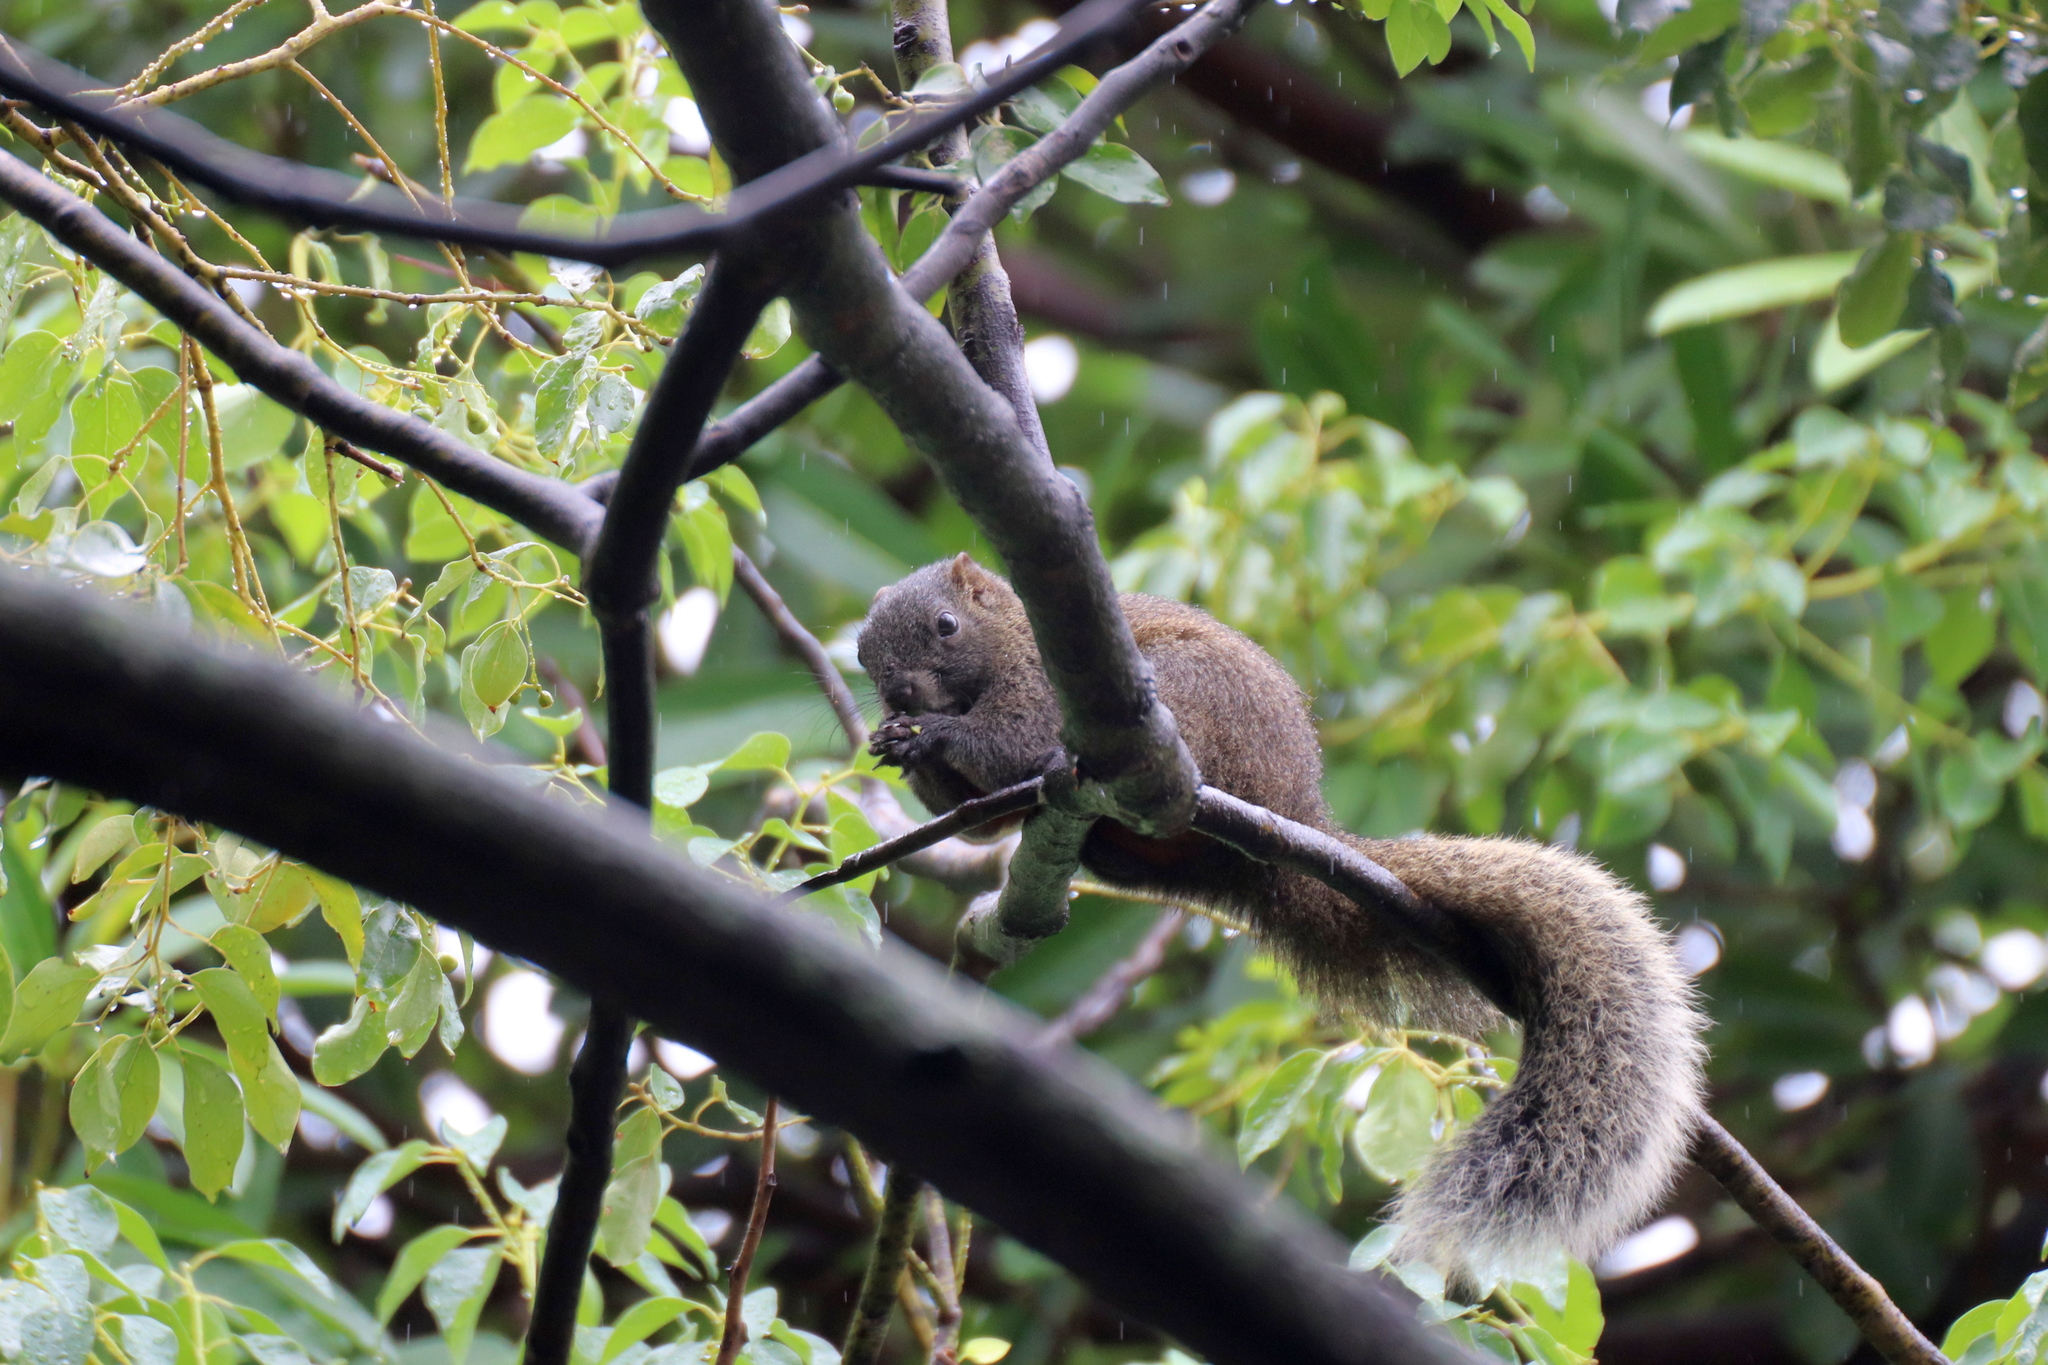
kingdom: Animalia
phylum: Chordata
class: Mammalia
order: Rodentia
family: Sciuridae
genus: Callosciurus
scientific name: Callosciurus erythraeus
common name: Pallas's squirrel
